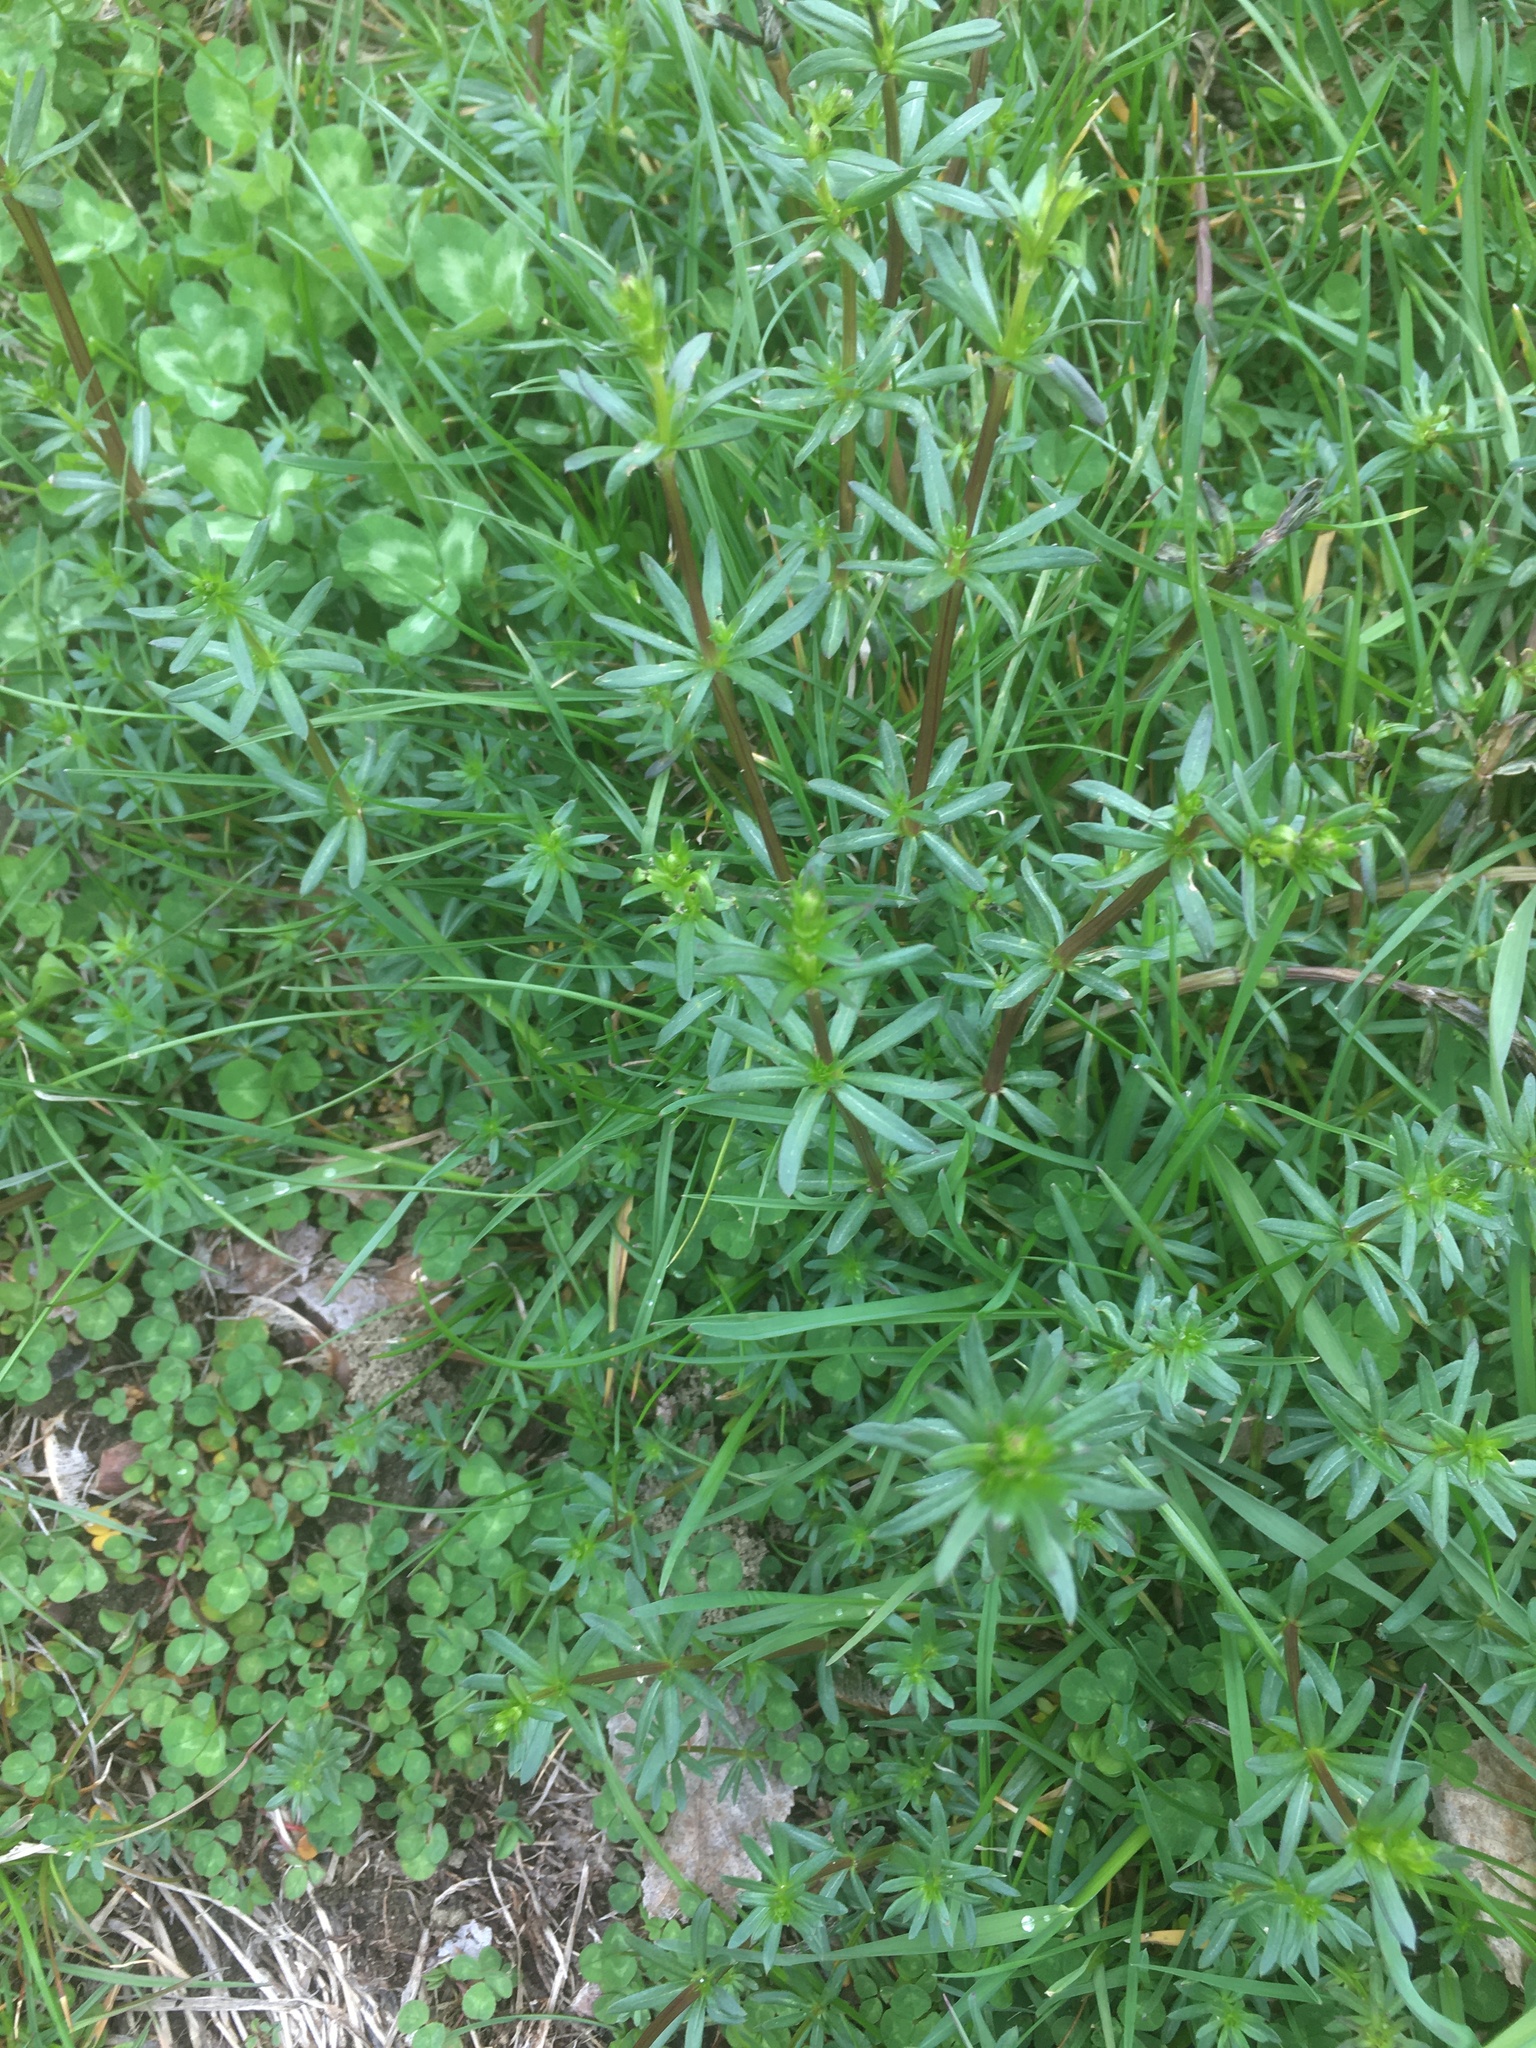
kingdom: Plantae
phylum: Tracheophyta
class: Magnoliopsida
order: Gentianales
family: Rubiaceae
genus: Galium
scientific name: Galium mollugo
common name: Hedge bedstraw
